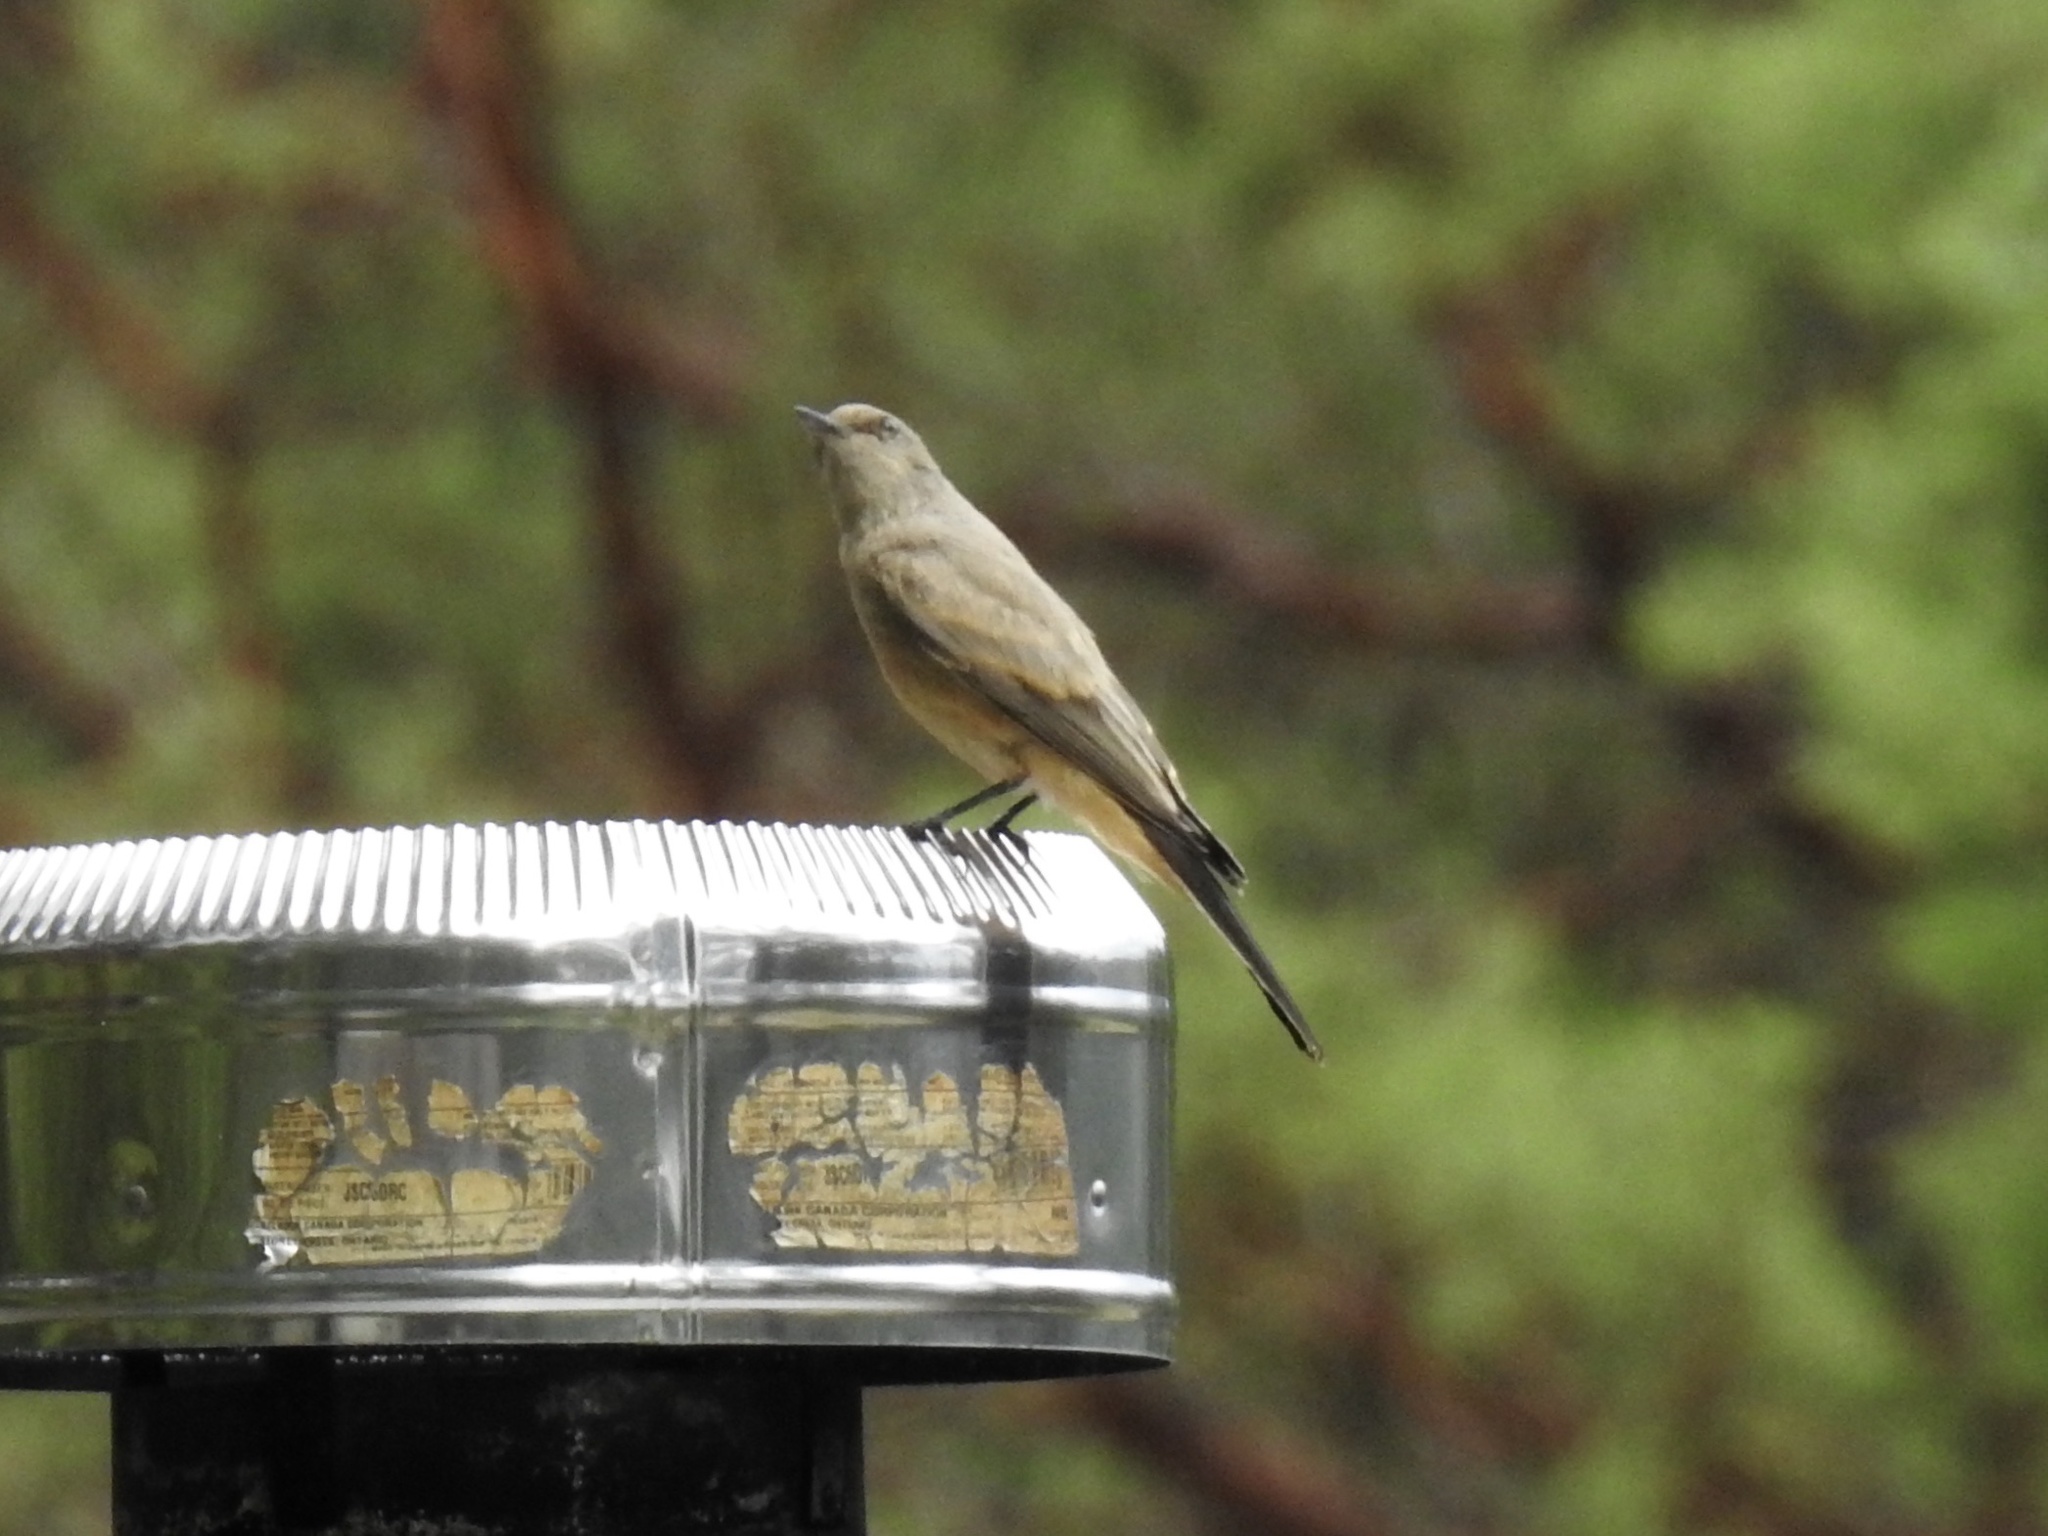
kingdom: Animalia
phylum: Chordata
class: Aves
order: Passeriformes
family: Tyrannidae
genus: Sayornis
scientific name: Sayornis saya
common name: Say's phoebe
